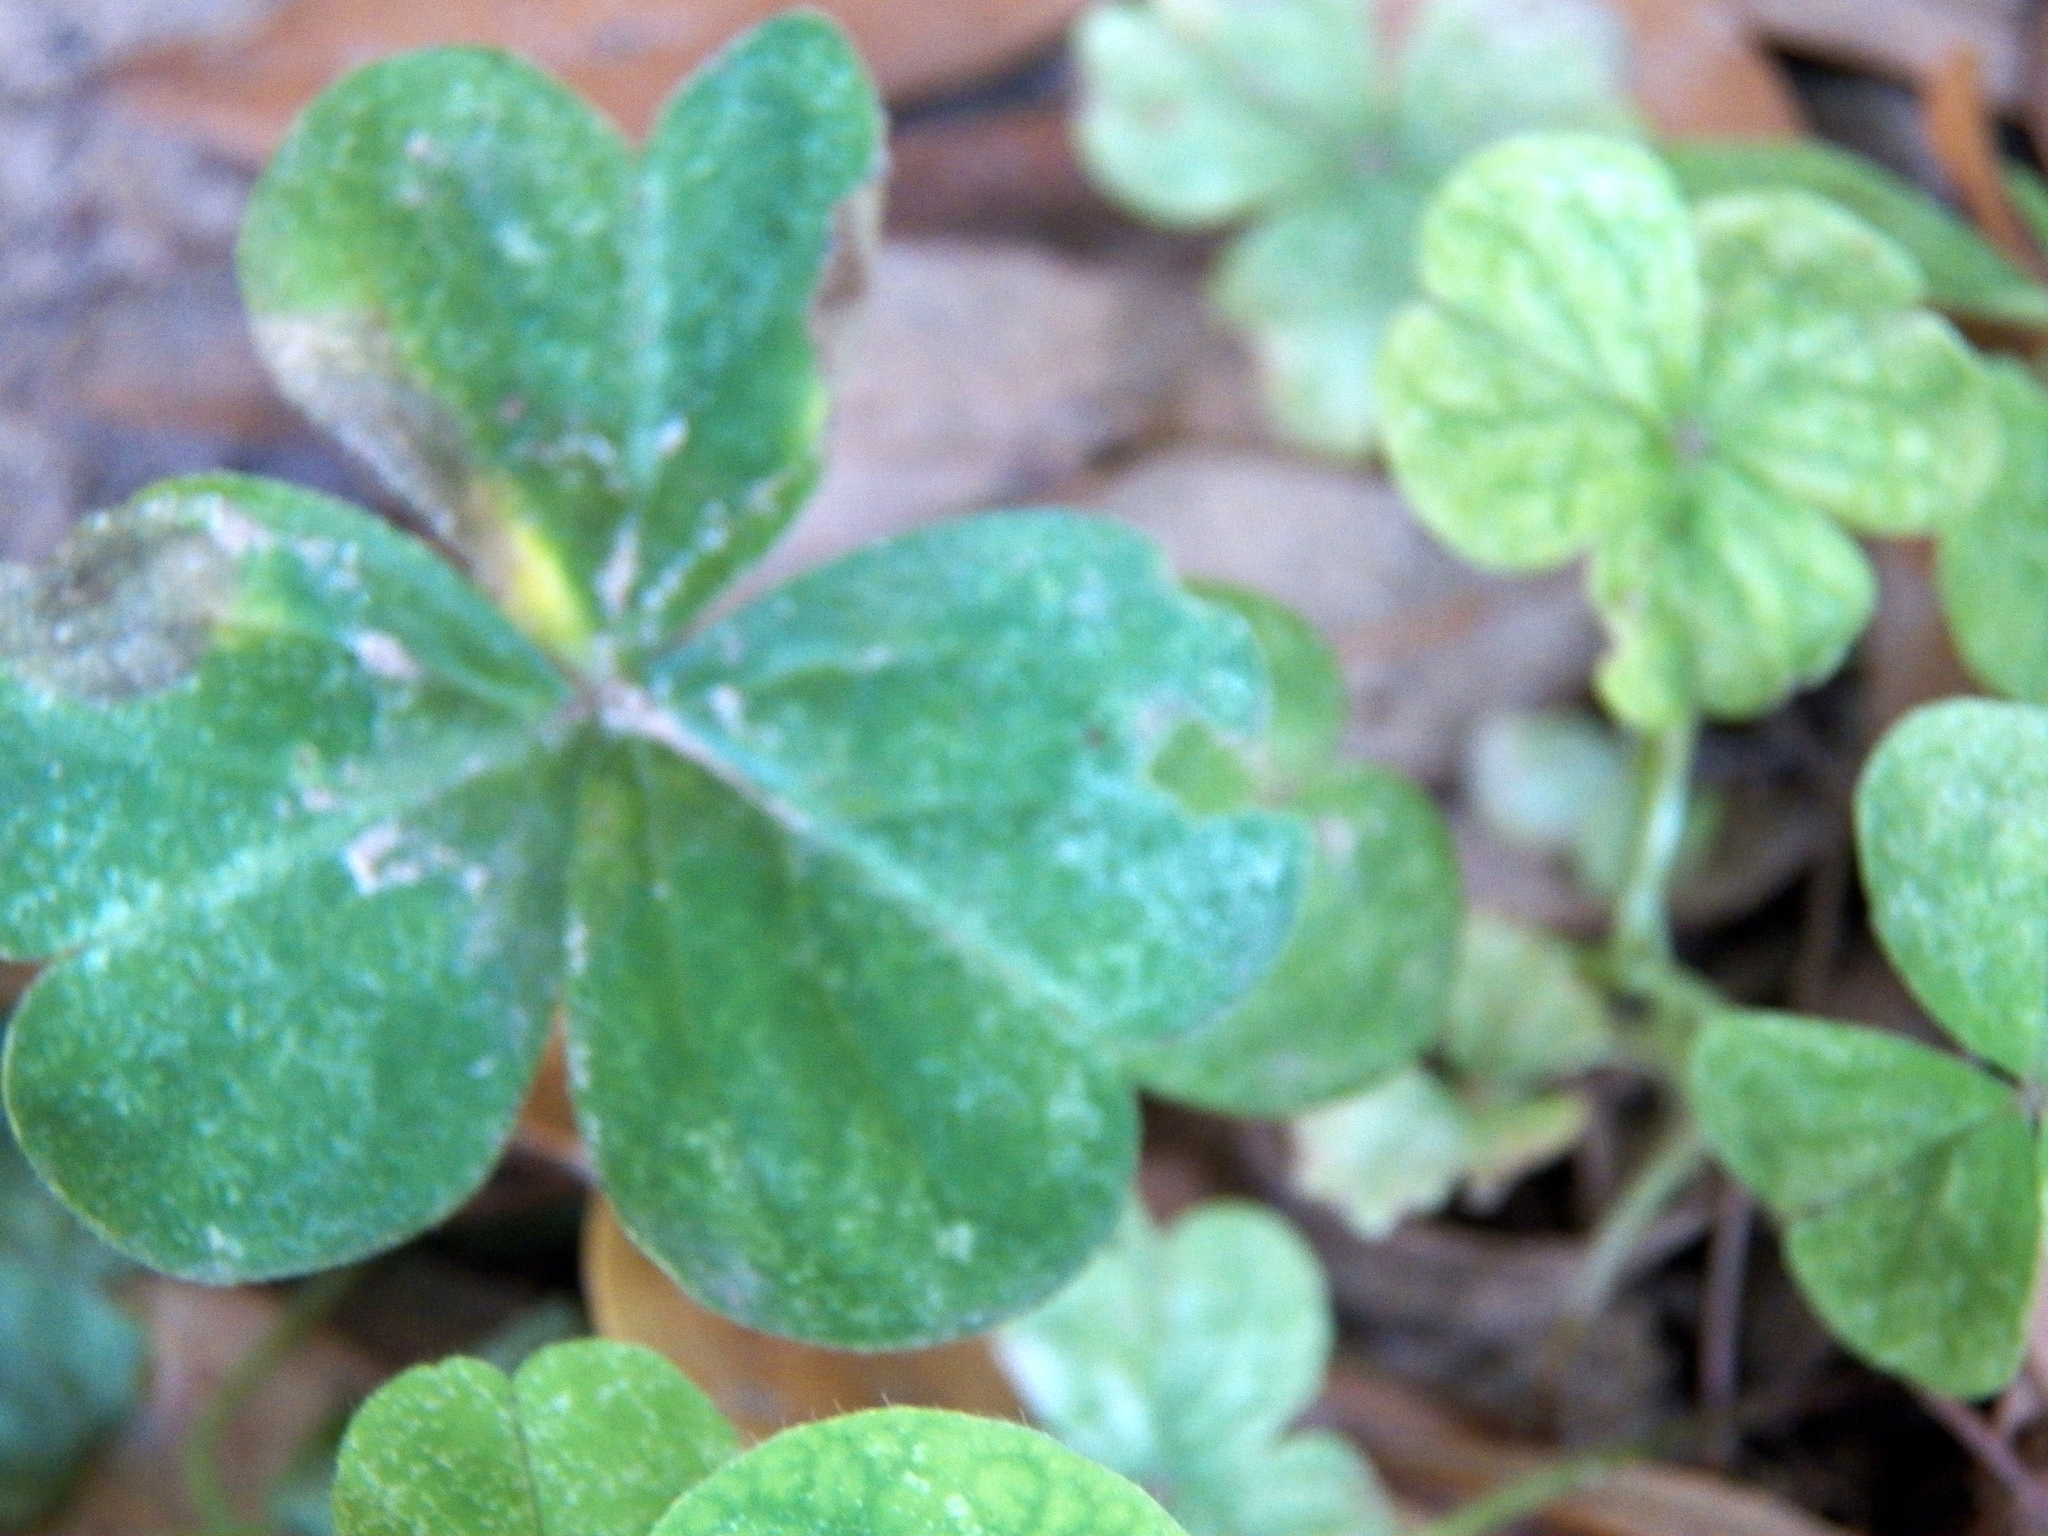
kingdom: Plantae
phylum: Tracheophyta
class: Magnoliopsida
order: Oxalidales
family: Oxalidaceae
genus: Oxalis
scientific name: Oxalis debilis
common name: Large-flowered pink-sorrel
